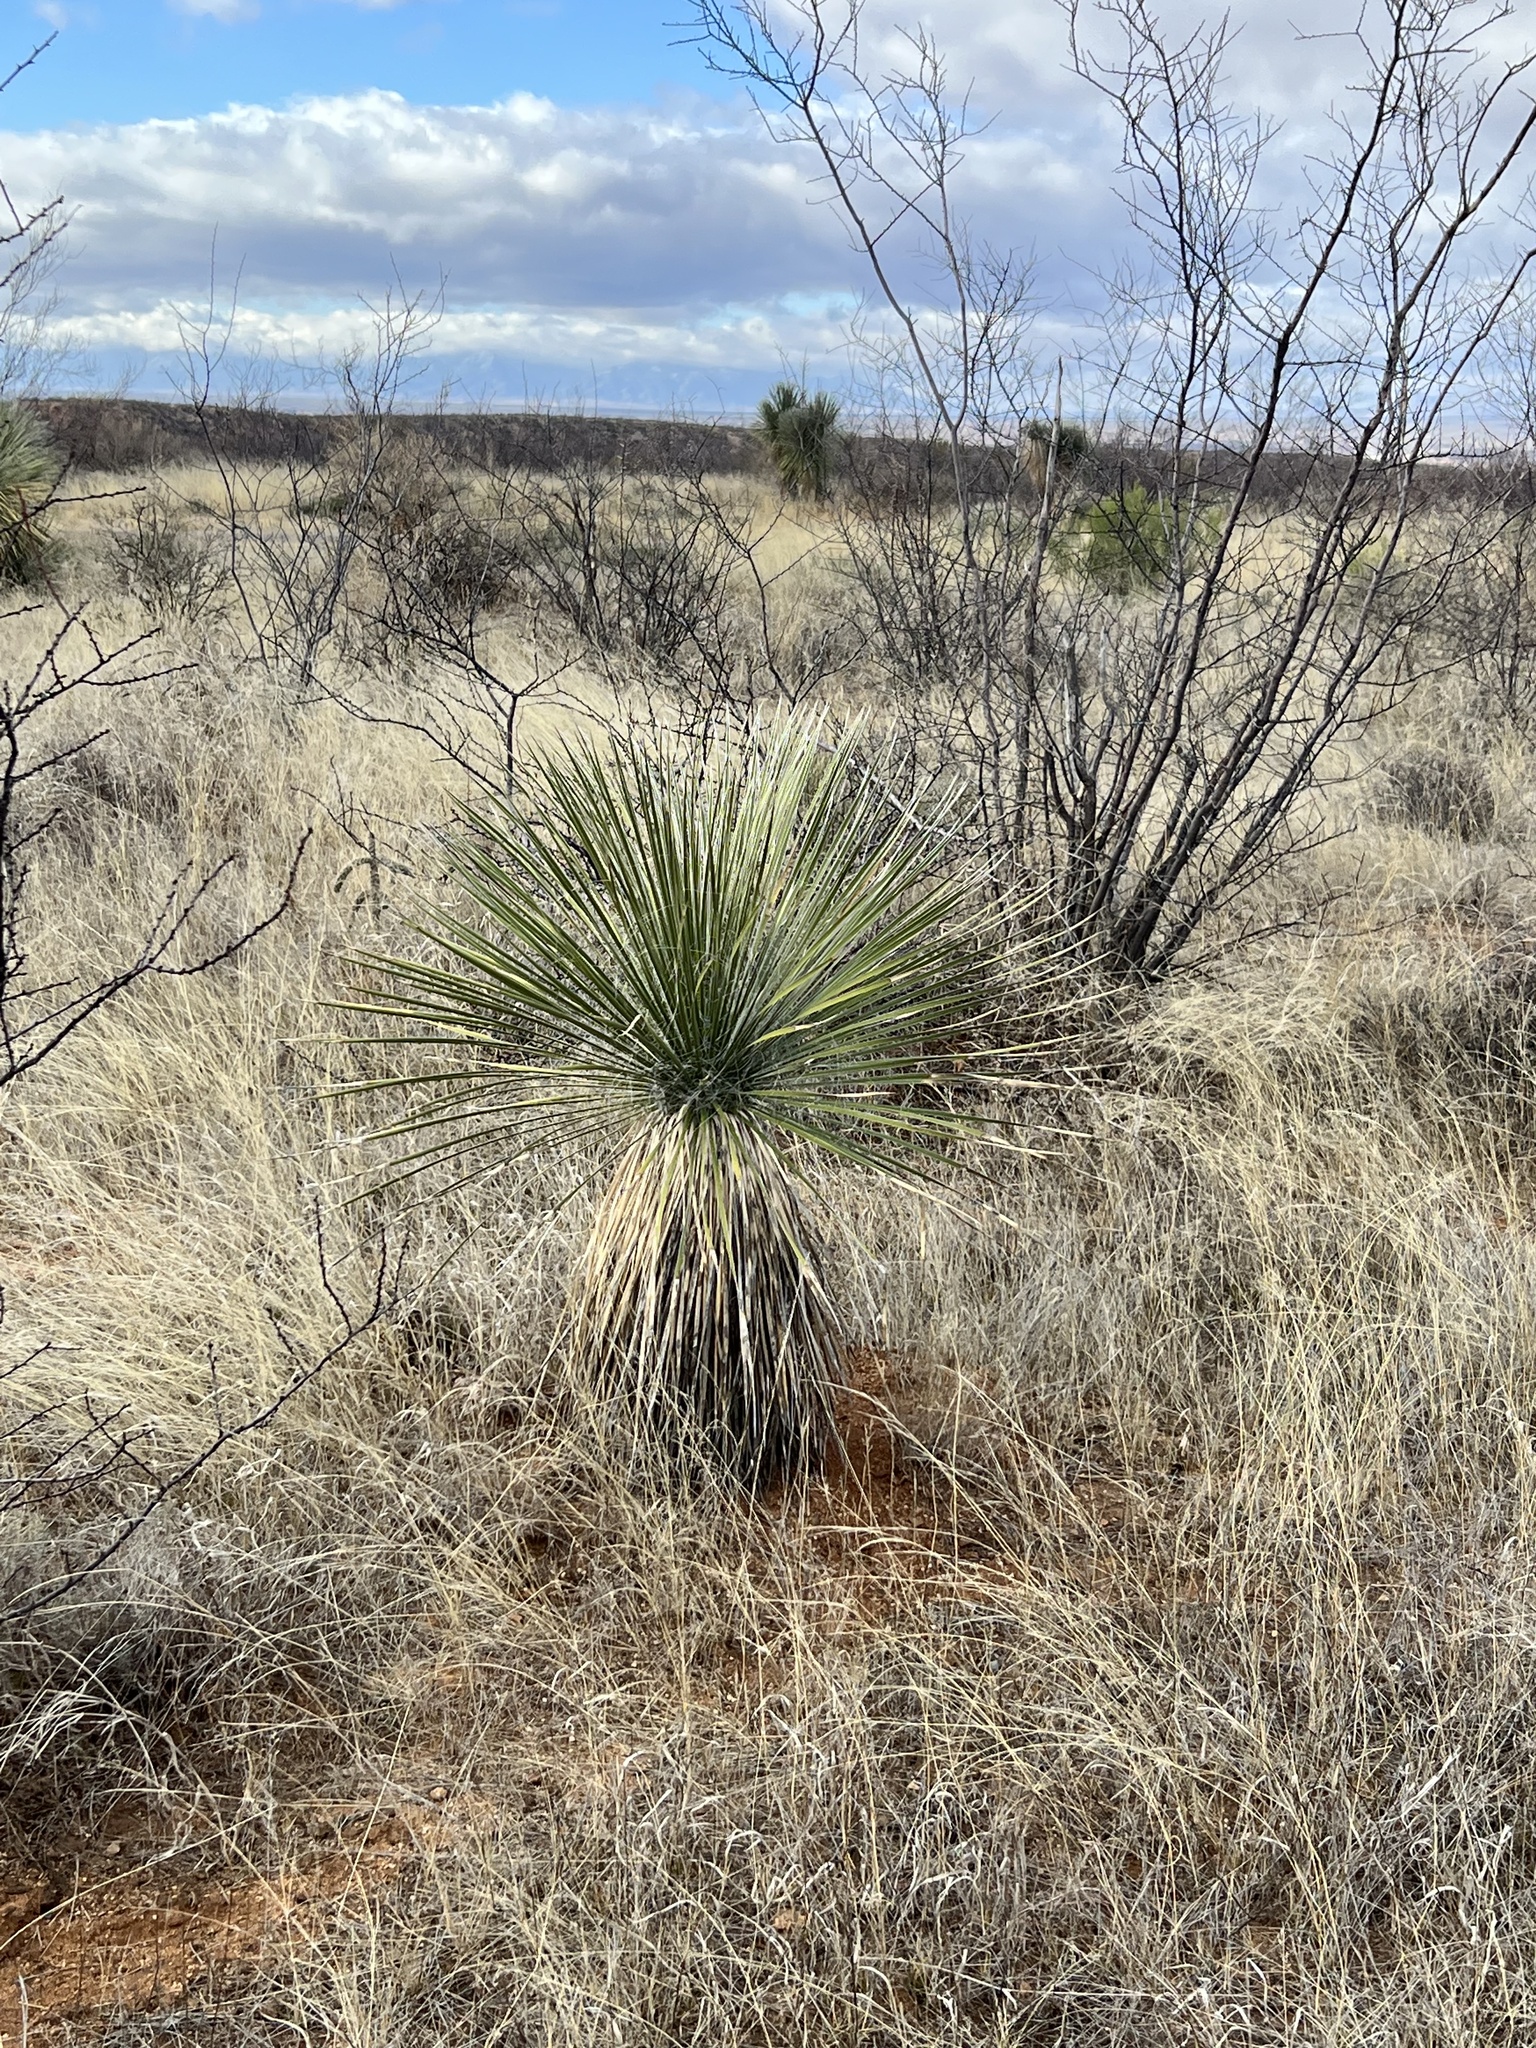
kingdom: Plantae
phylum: Tracheophyta
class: Liliopsida
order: Asparagales
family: Asparagaceae
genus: Yucca
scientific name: Yucca elata
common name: Palmella
